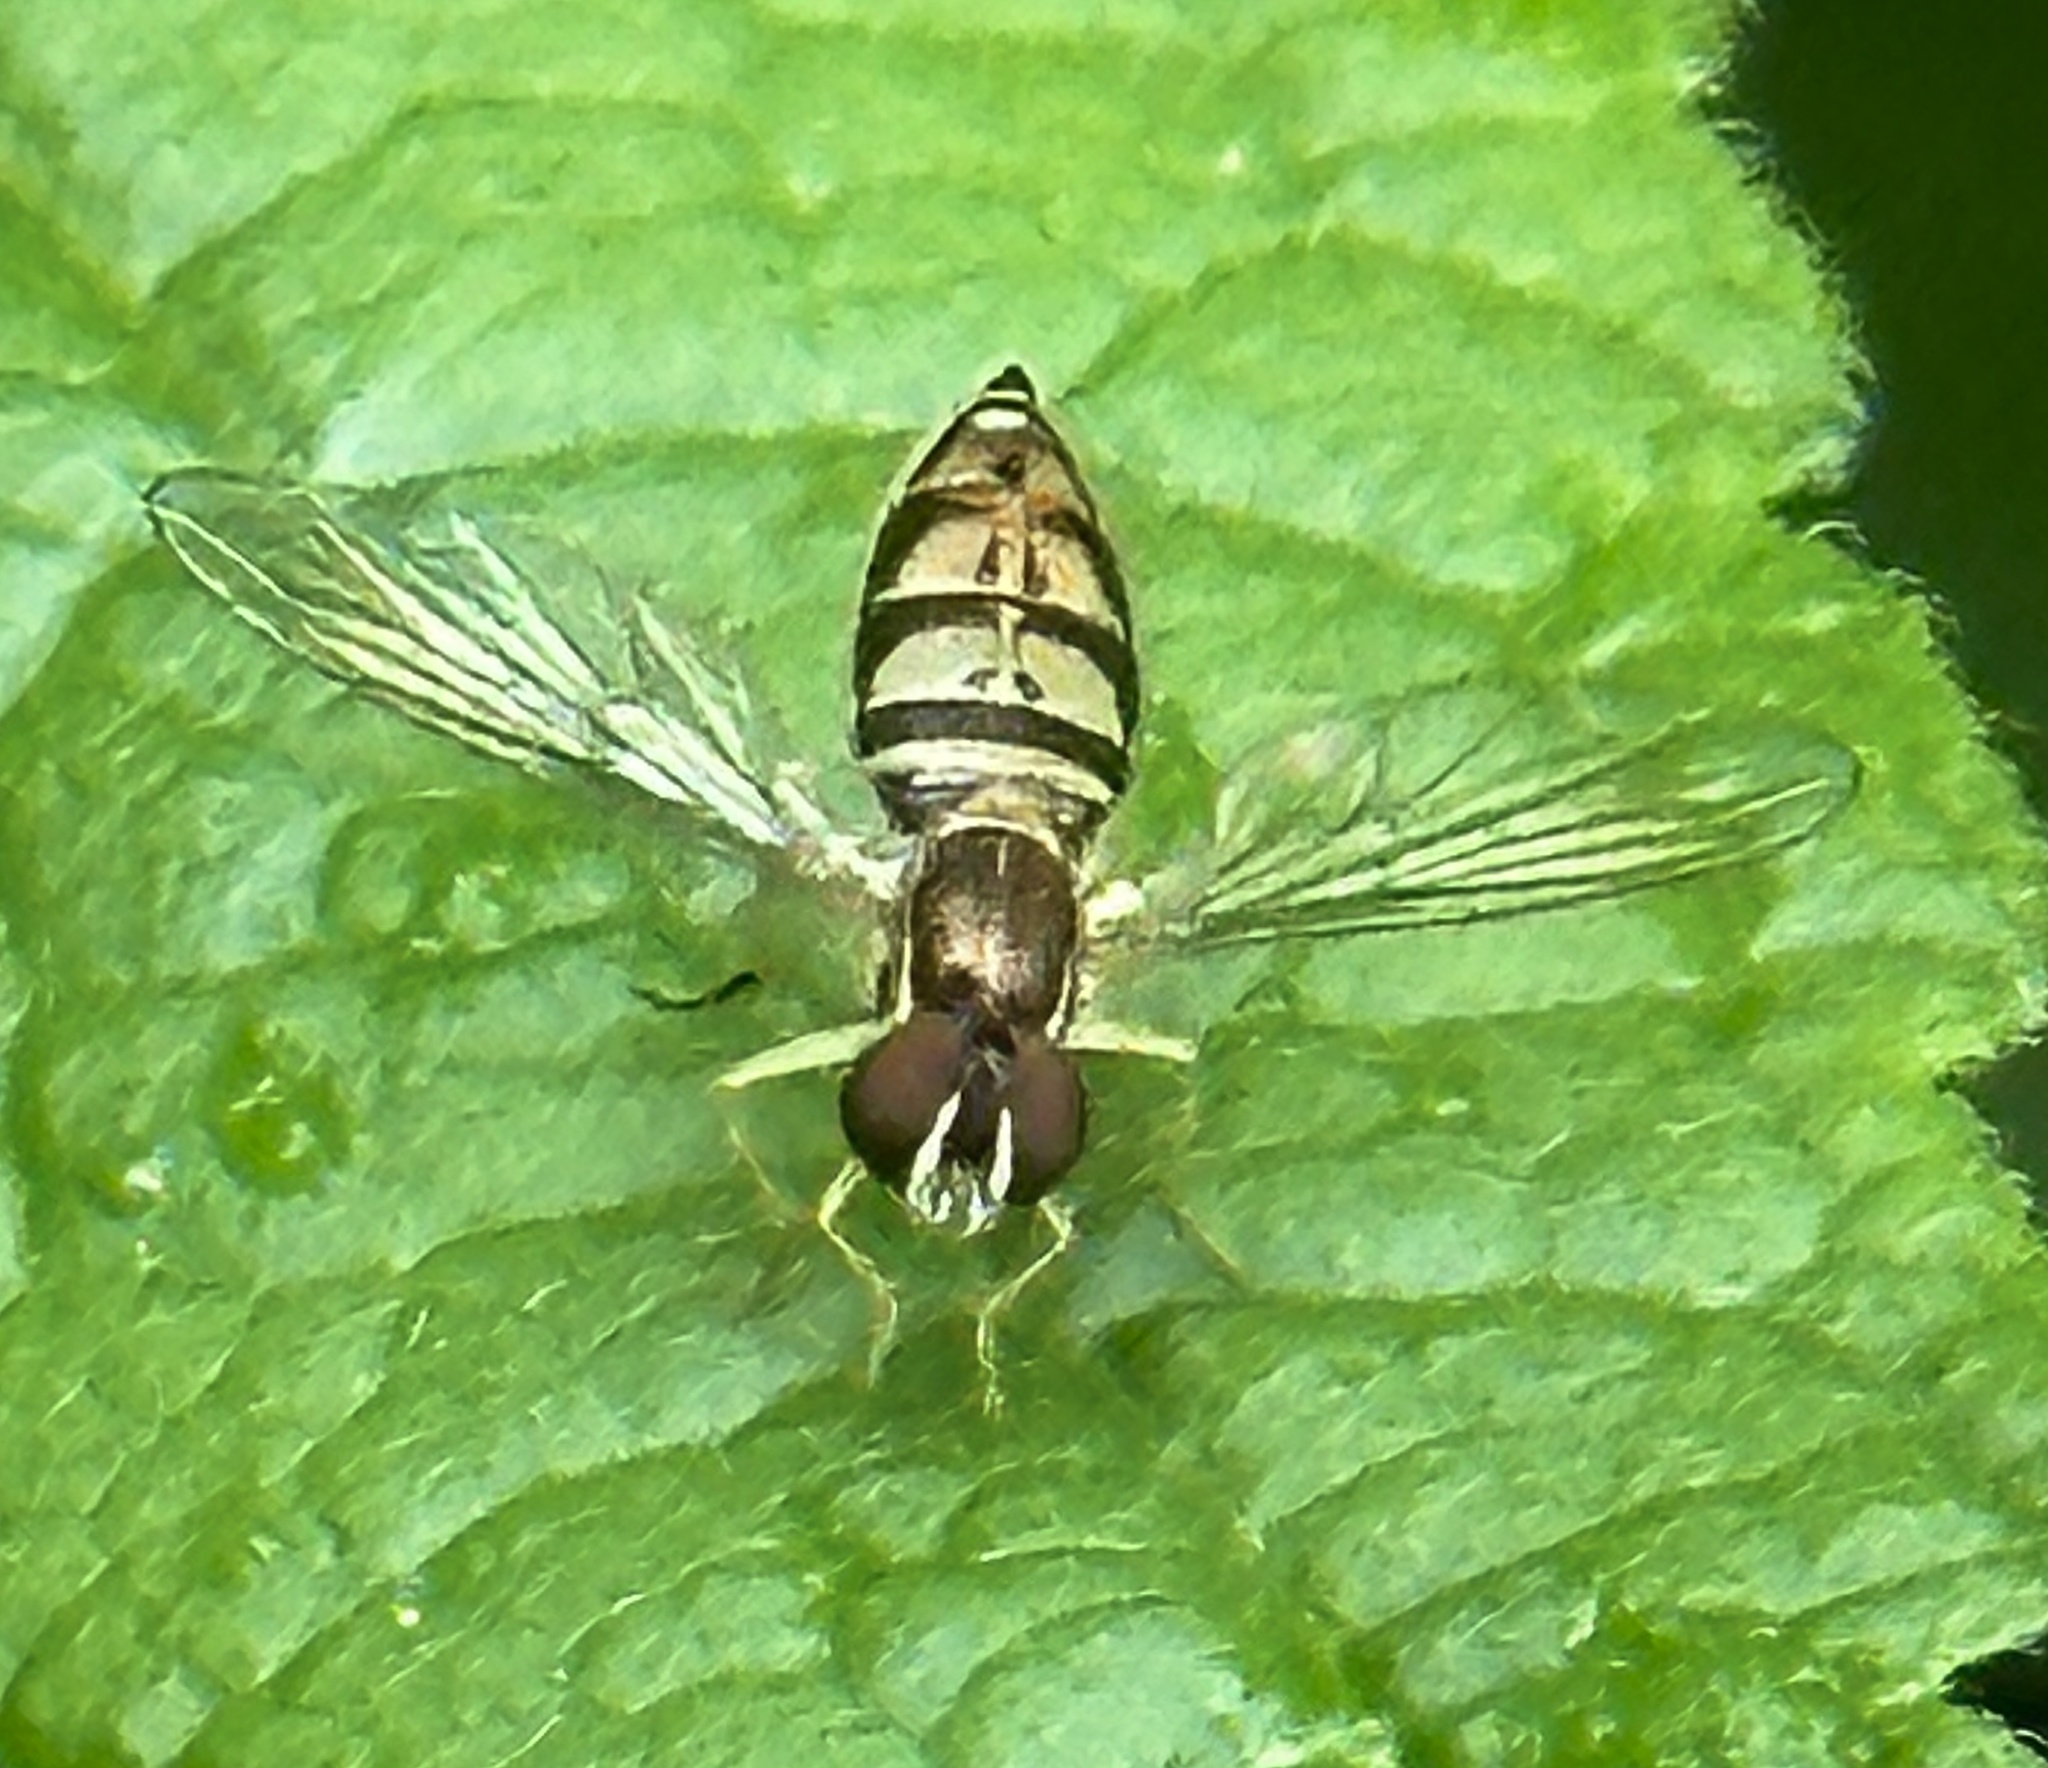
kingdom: Animalia
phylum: Arthropoda
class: Insecta
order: Diptera
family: Syrphidae
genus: Toxomerus
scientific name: Toxomerus marginatus
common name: Syrphid fly
